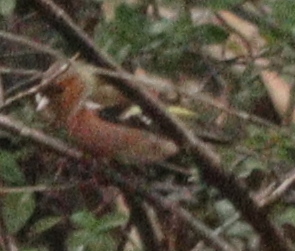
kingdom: Animalia
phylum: Chordata
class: Aves
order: Passeriformes
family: Fringillidae
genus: Fringilla
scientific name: Fringilla coelebs
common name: Common chaffinch
